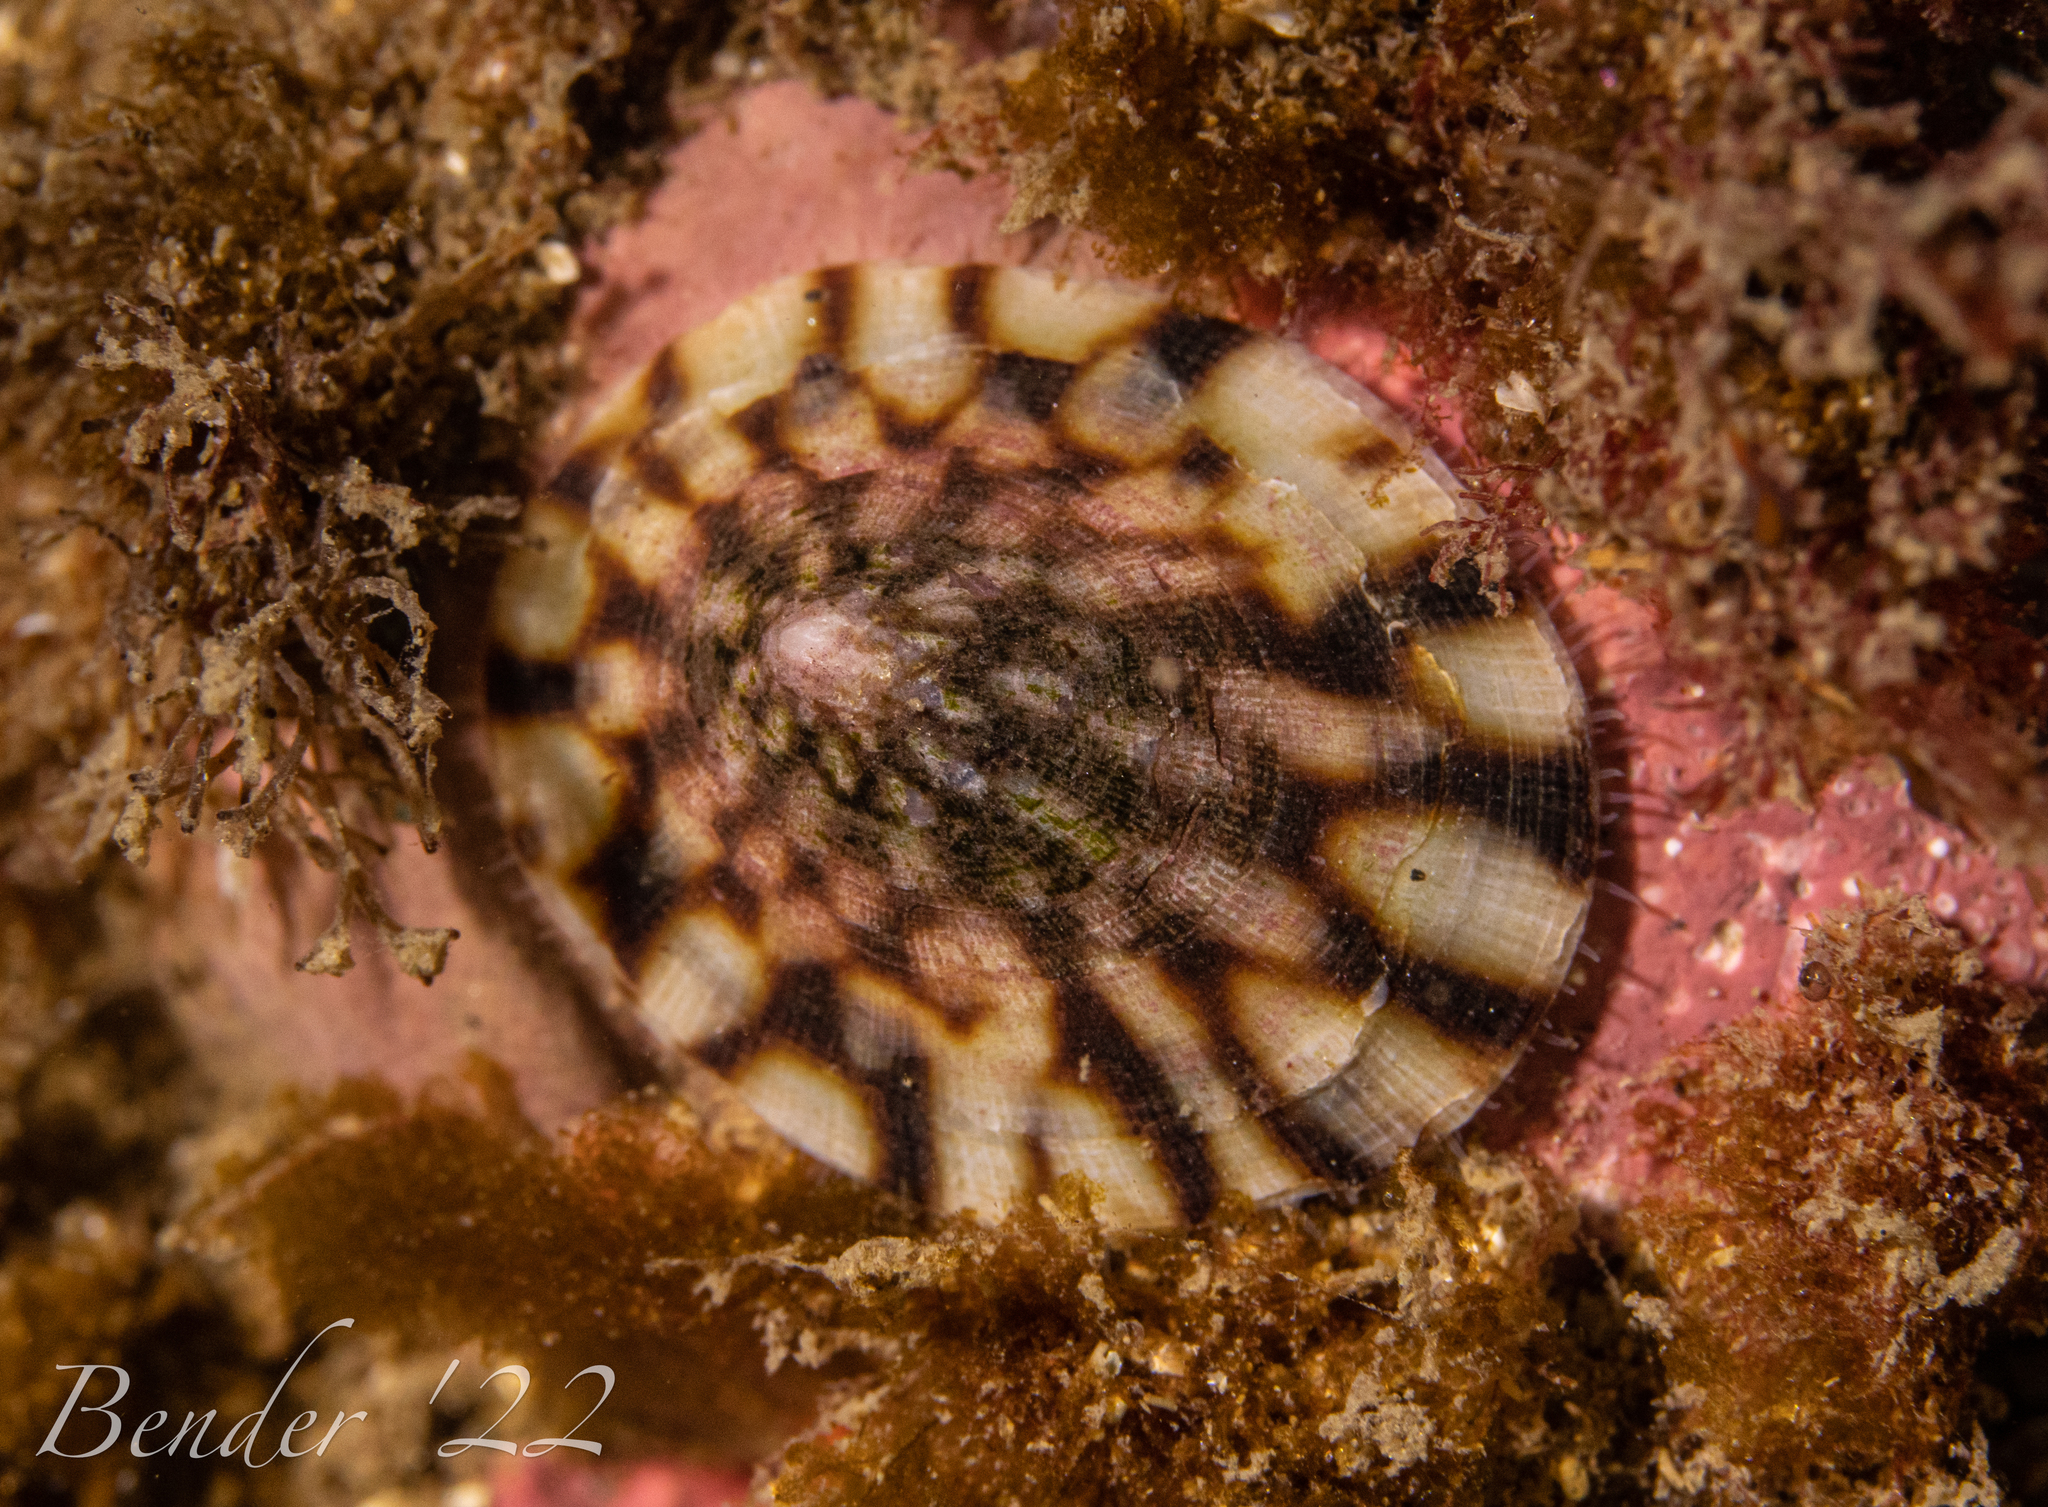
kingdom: Animalia
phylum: Mollusca
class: Gastropoda
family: Lottiidae
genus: Testudinalia
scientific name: Testudinalia testudinalis
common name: Common tortoiseshell limpet
